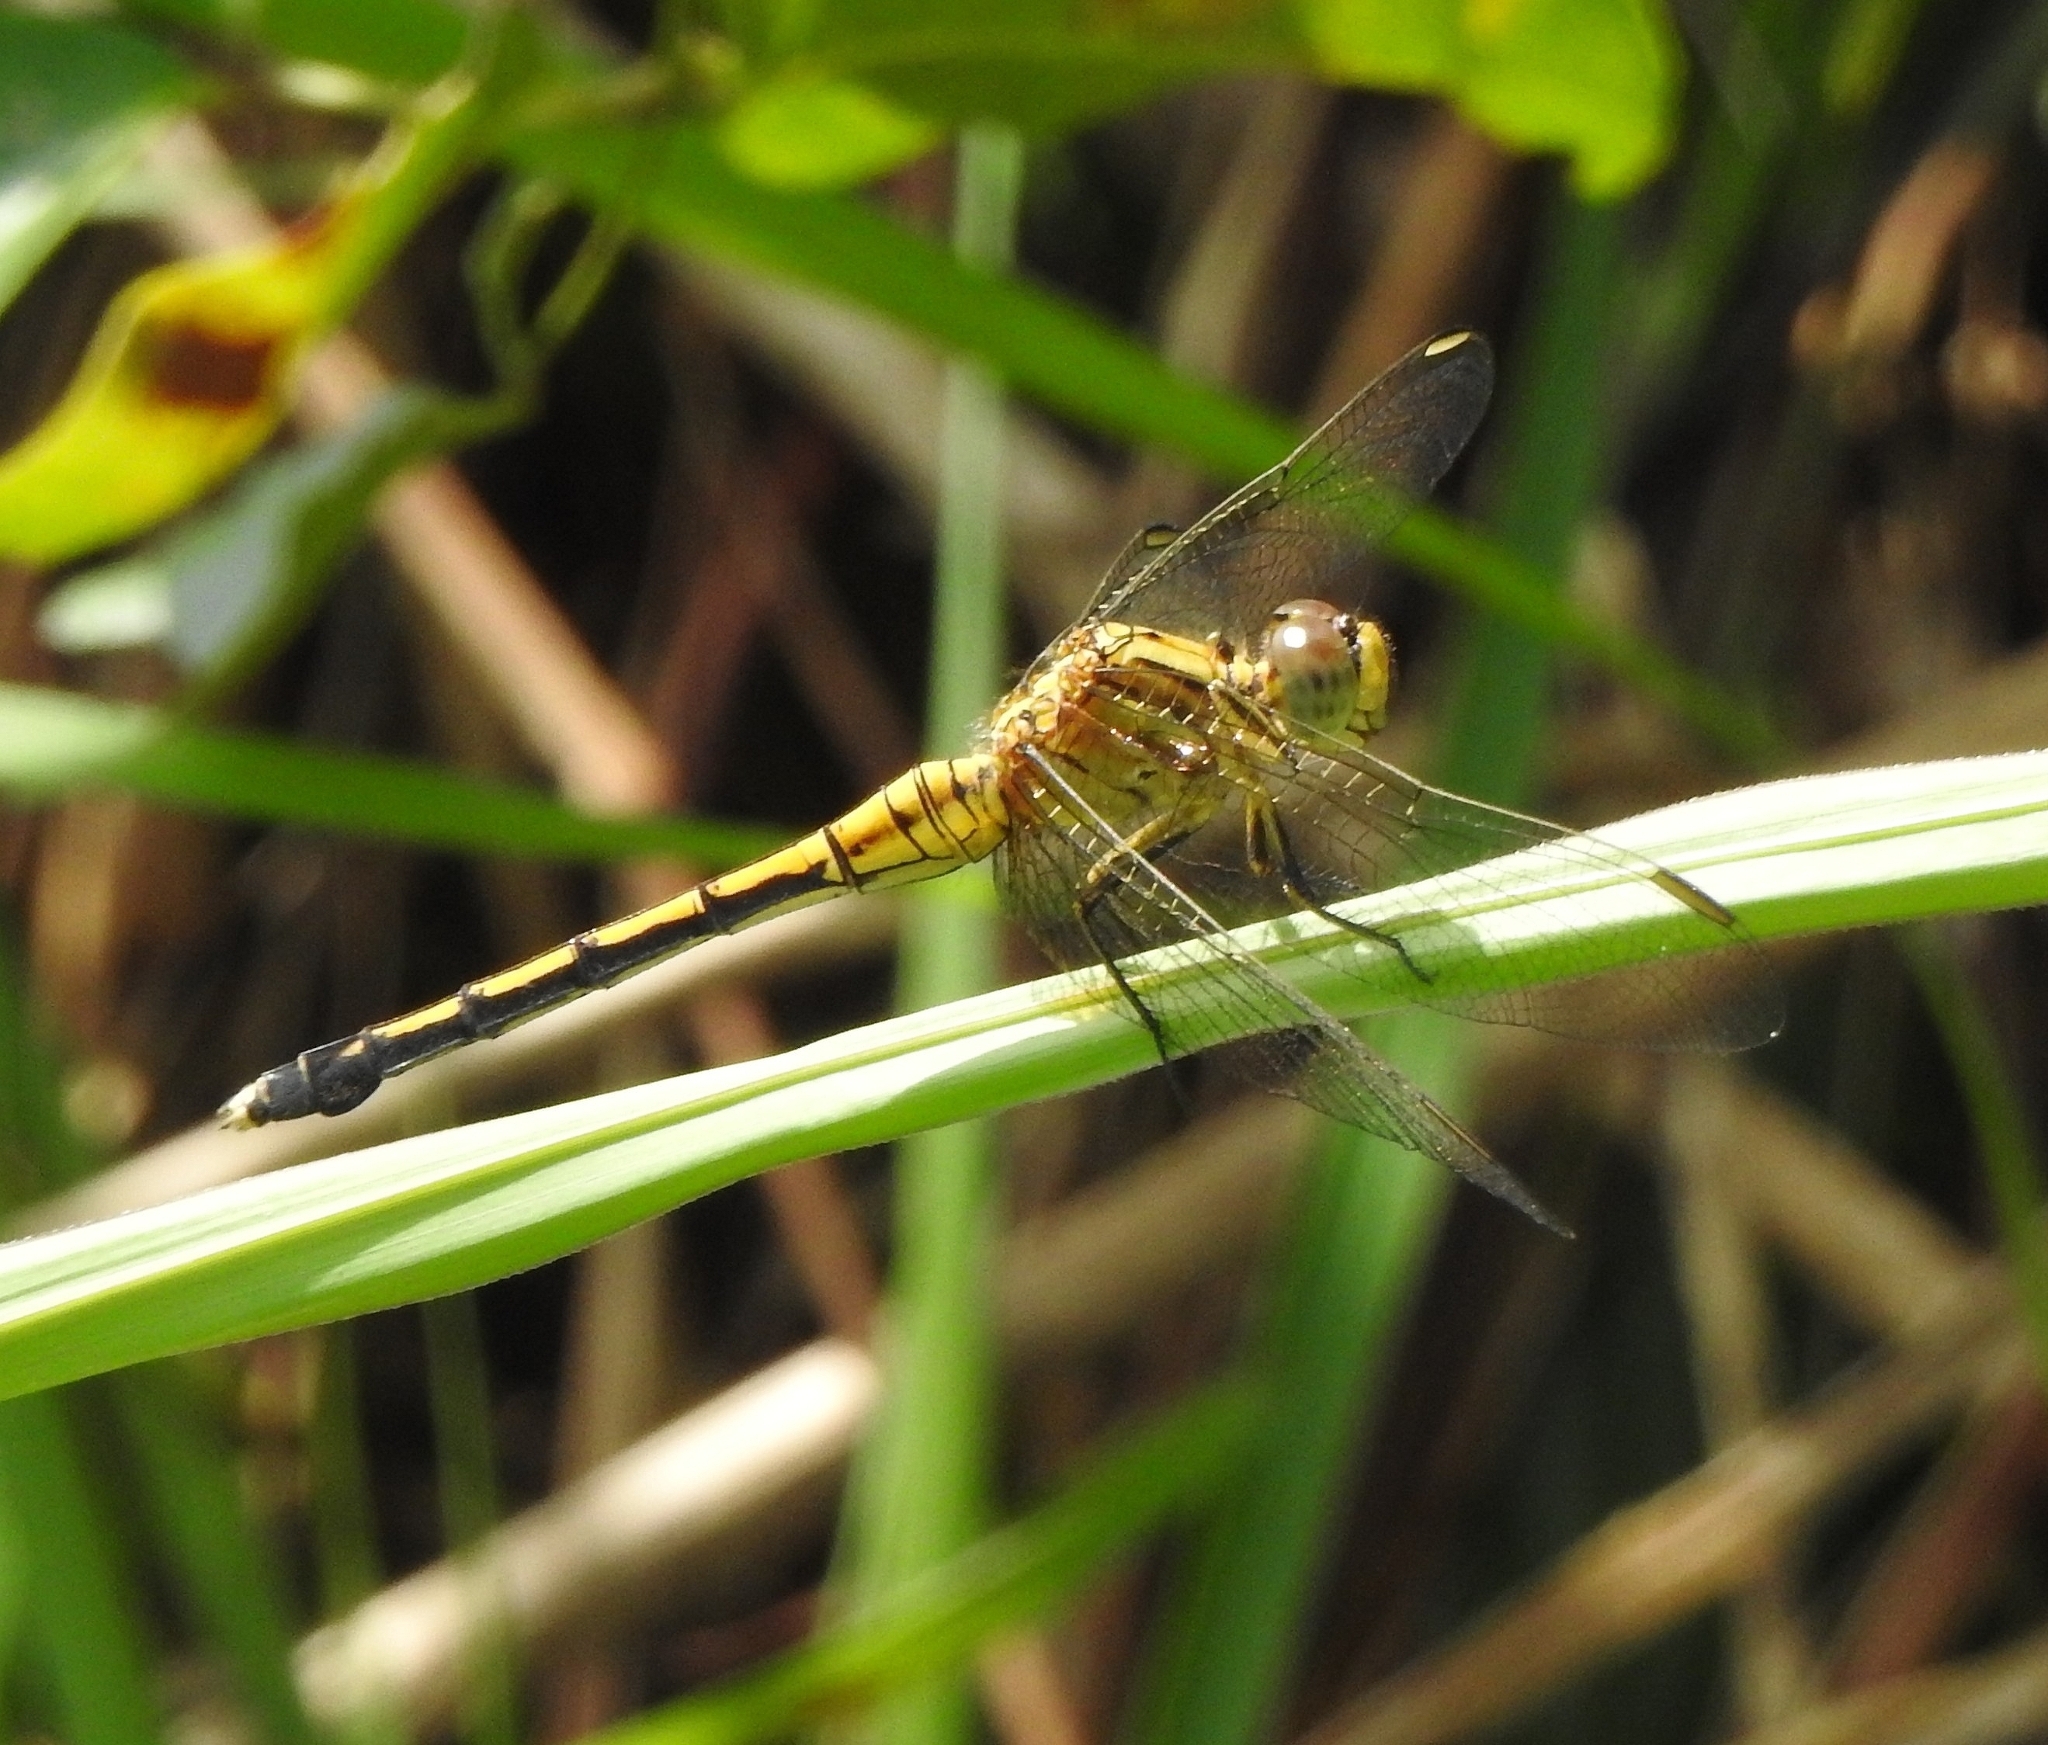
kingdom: Animalia
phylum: Arthropoda
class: Insecta
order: Odonata
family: Libellulidae
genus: Orthetrum
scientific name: Orthetrum luzonicum
